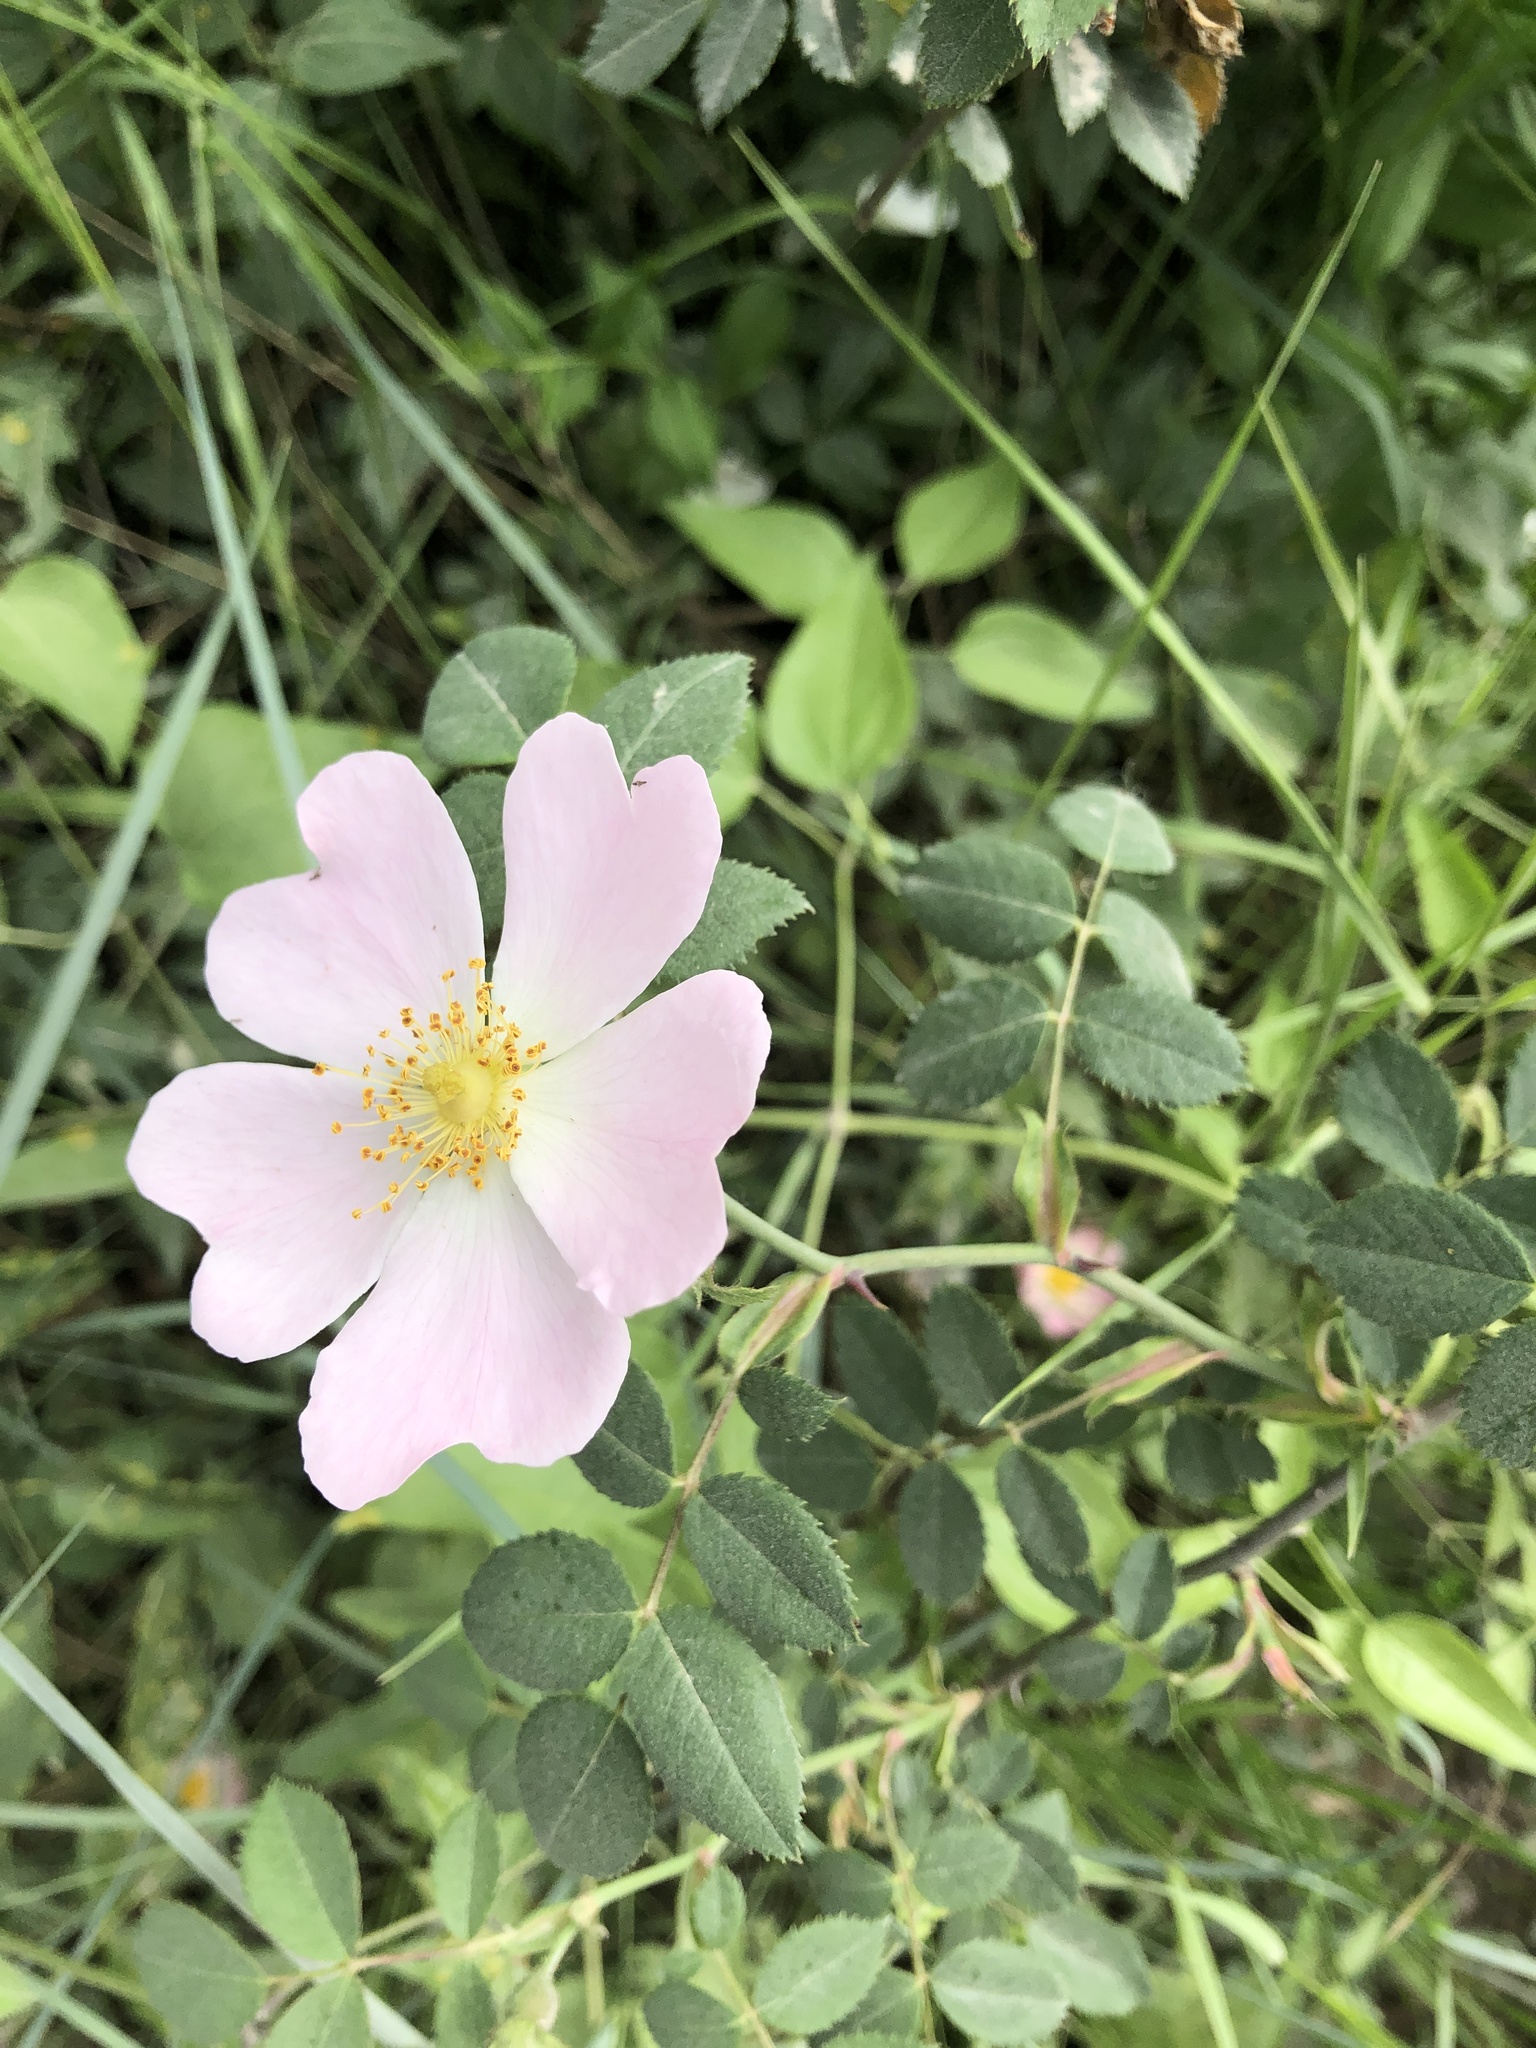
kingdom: Plantae
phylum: Tracheophyta
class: Magnoliopsida
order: Rosales
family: Rosaceae
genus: Rosa
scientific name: Rosa pouzinii
